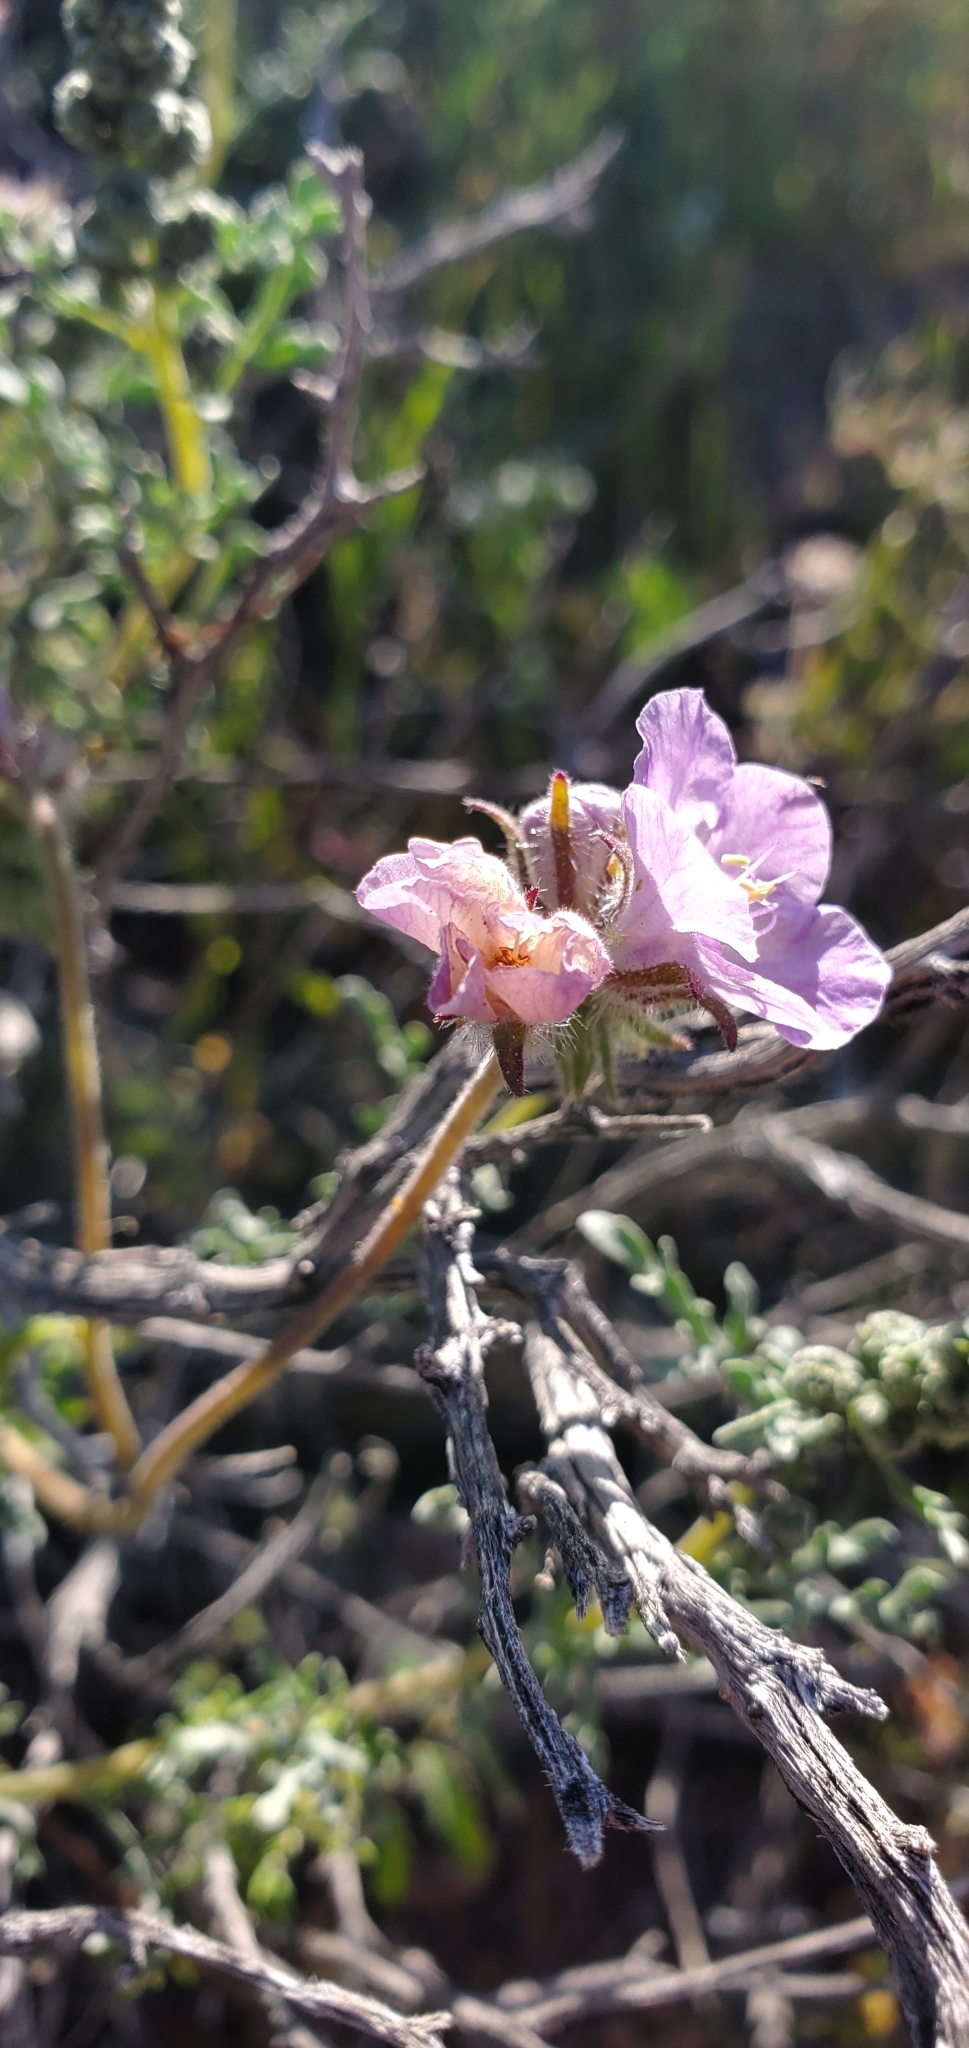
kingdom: Plantae
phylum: Tracheophyta
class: Magnoliopsida
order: Boraginales
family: Hydrophyllaceae
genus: Phacelia
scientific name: Phacelia vallis-mortae
